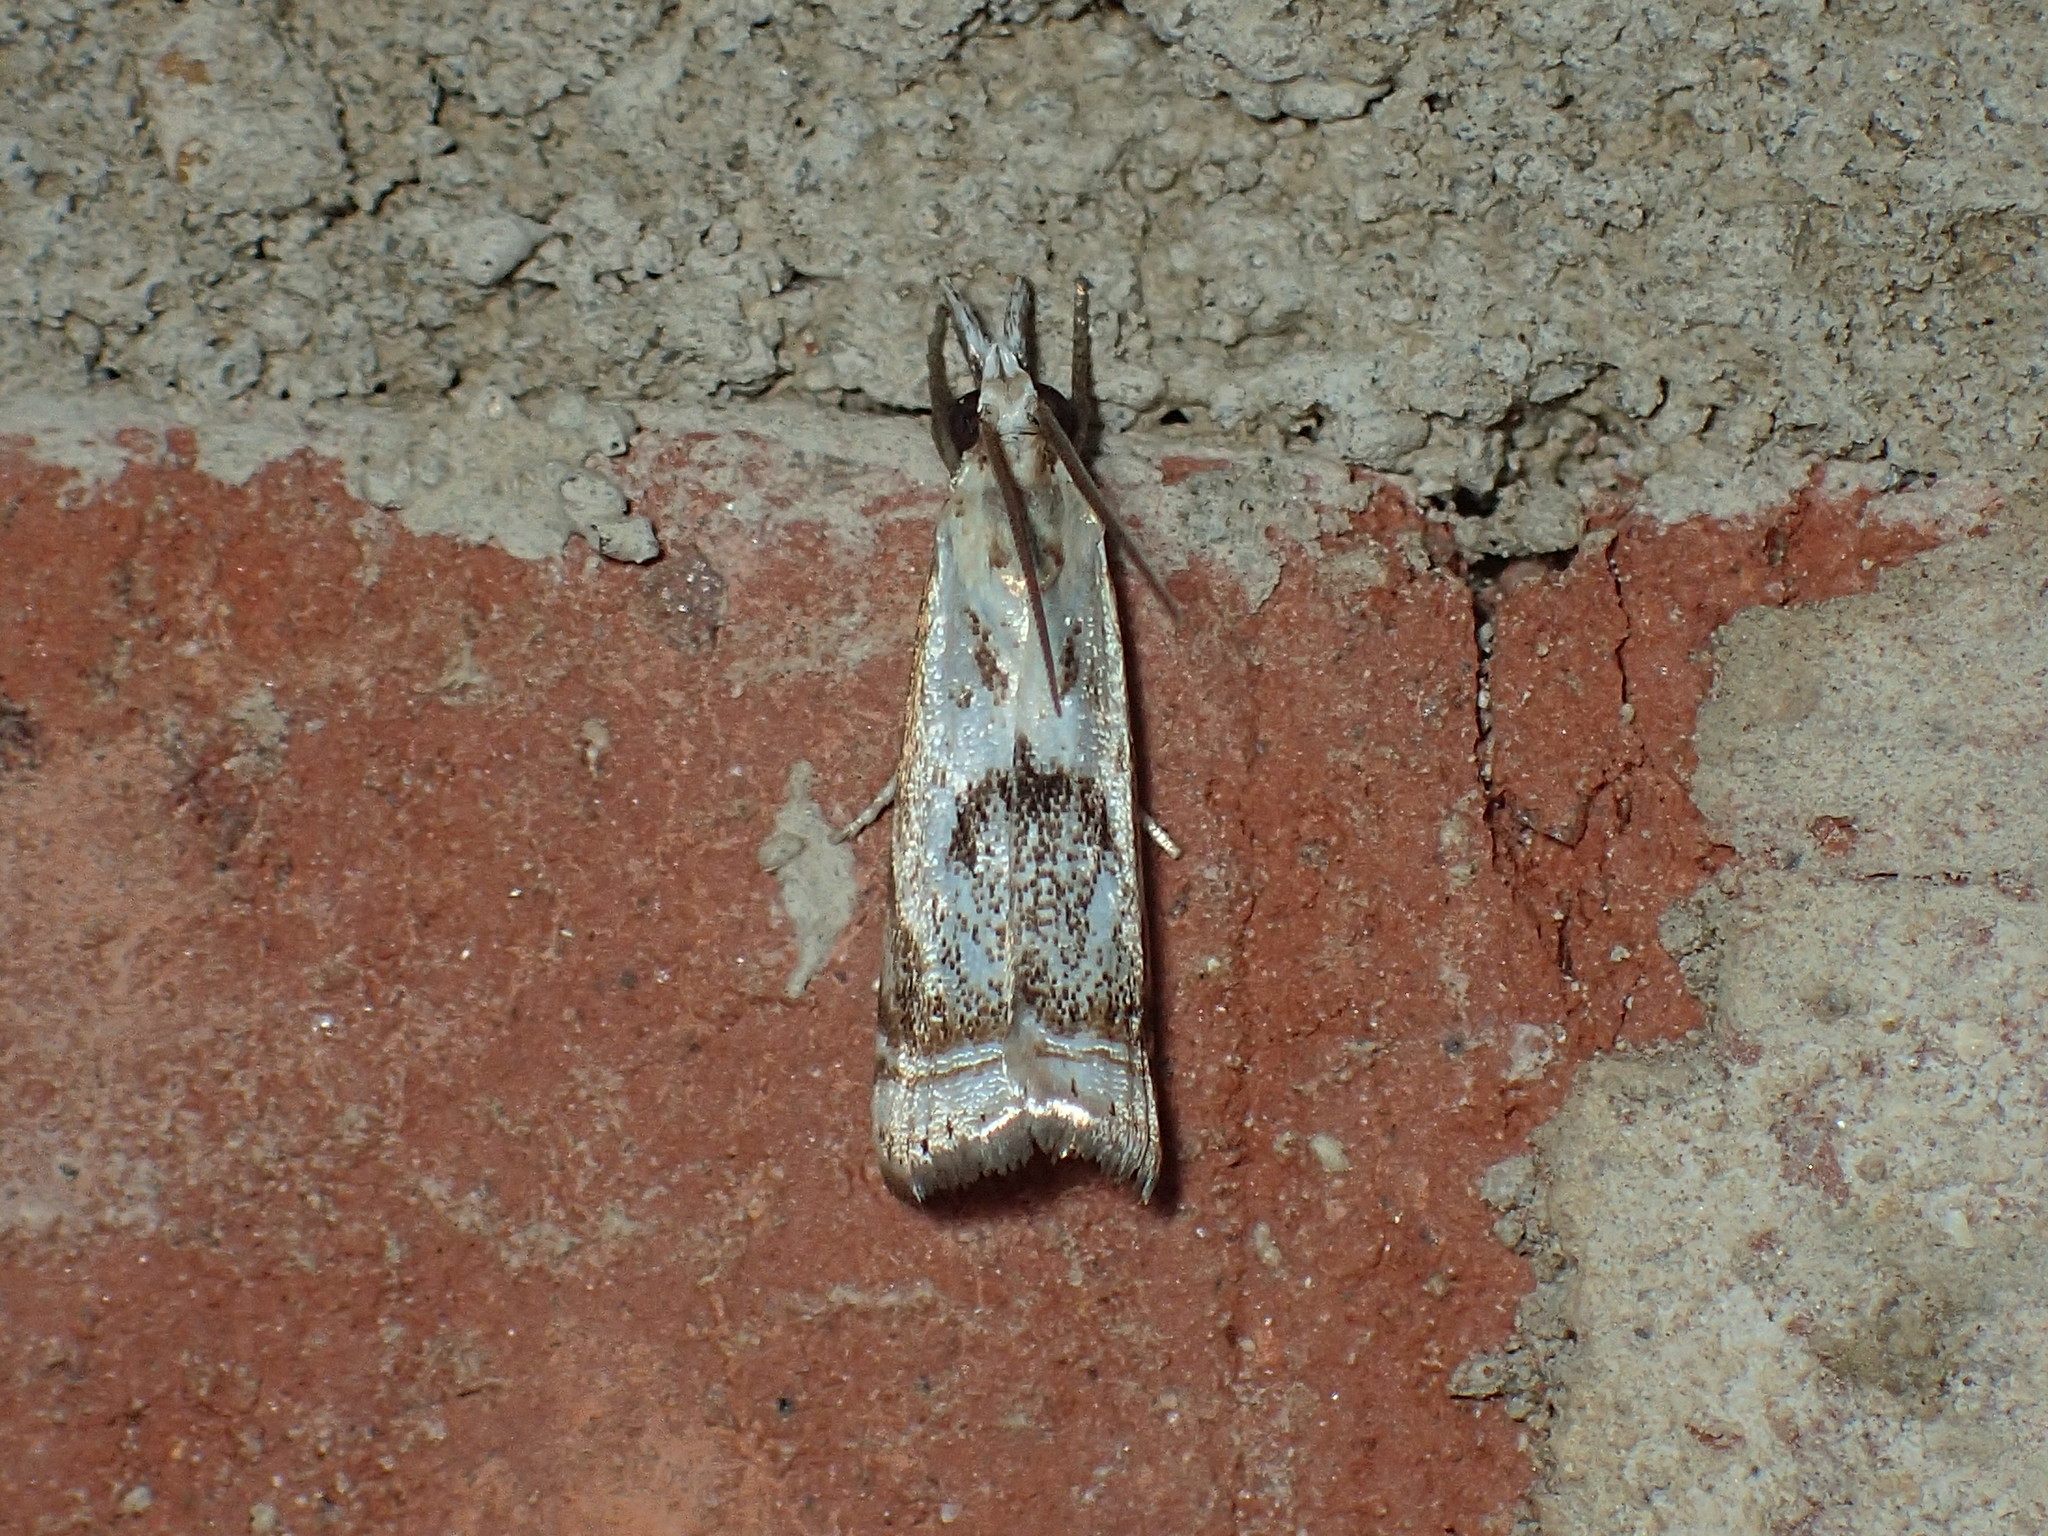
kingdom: Animalia
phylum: Arthropoda
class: Insecta
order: Lepidoptera
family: Crambidae
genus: Microcrambus
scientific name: Microcrambus elegans
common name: Elegant grass-veneer
